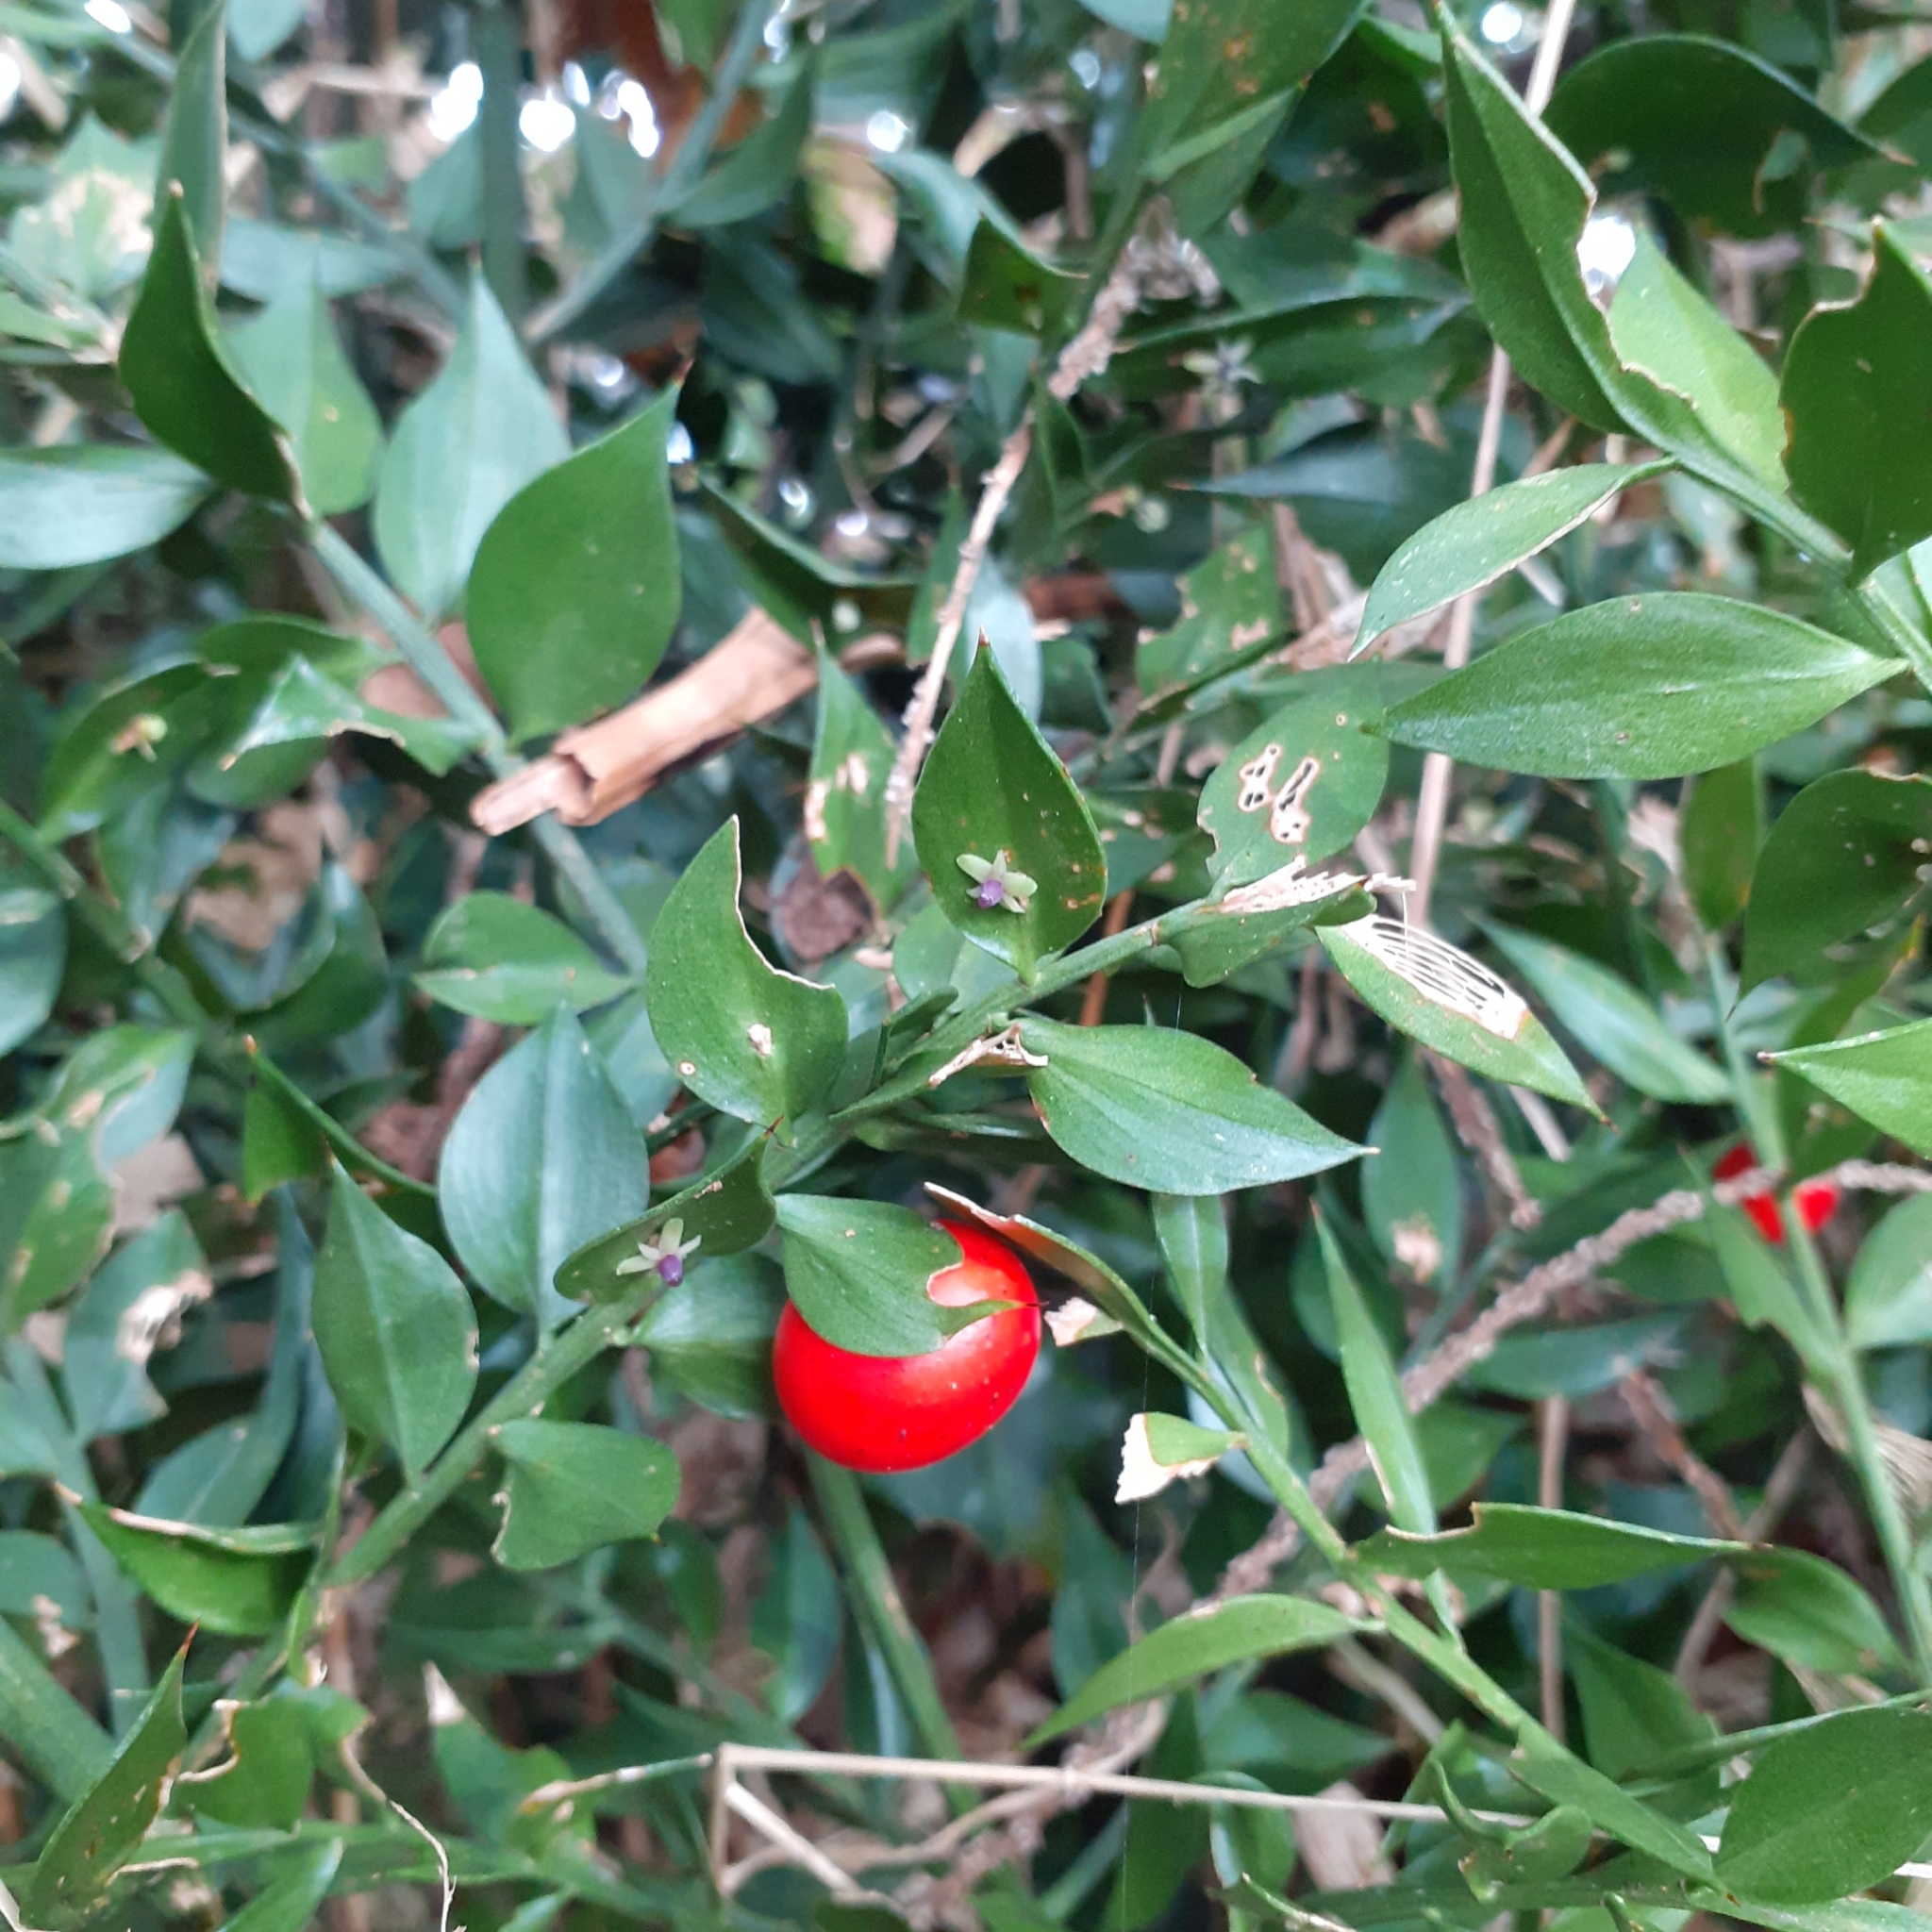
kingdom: Plantae
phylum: Tracheophyta
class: Liliopsida
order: Asparagales
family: Asparagaceae
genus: Ruscus
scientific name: Ruscus aculeatus
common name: Butcher's-broom
